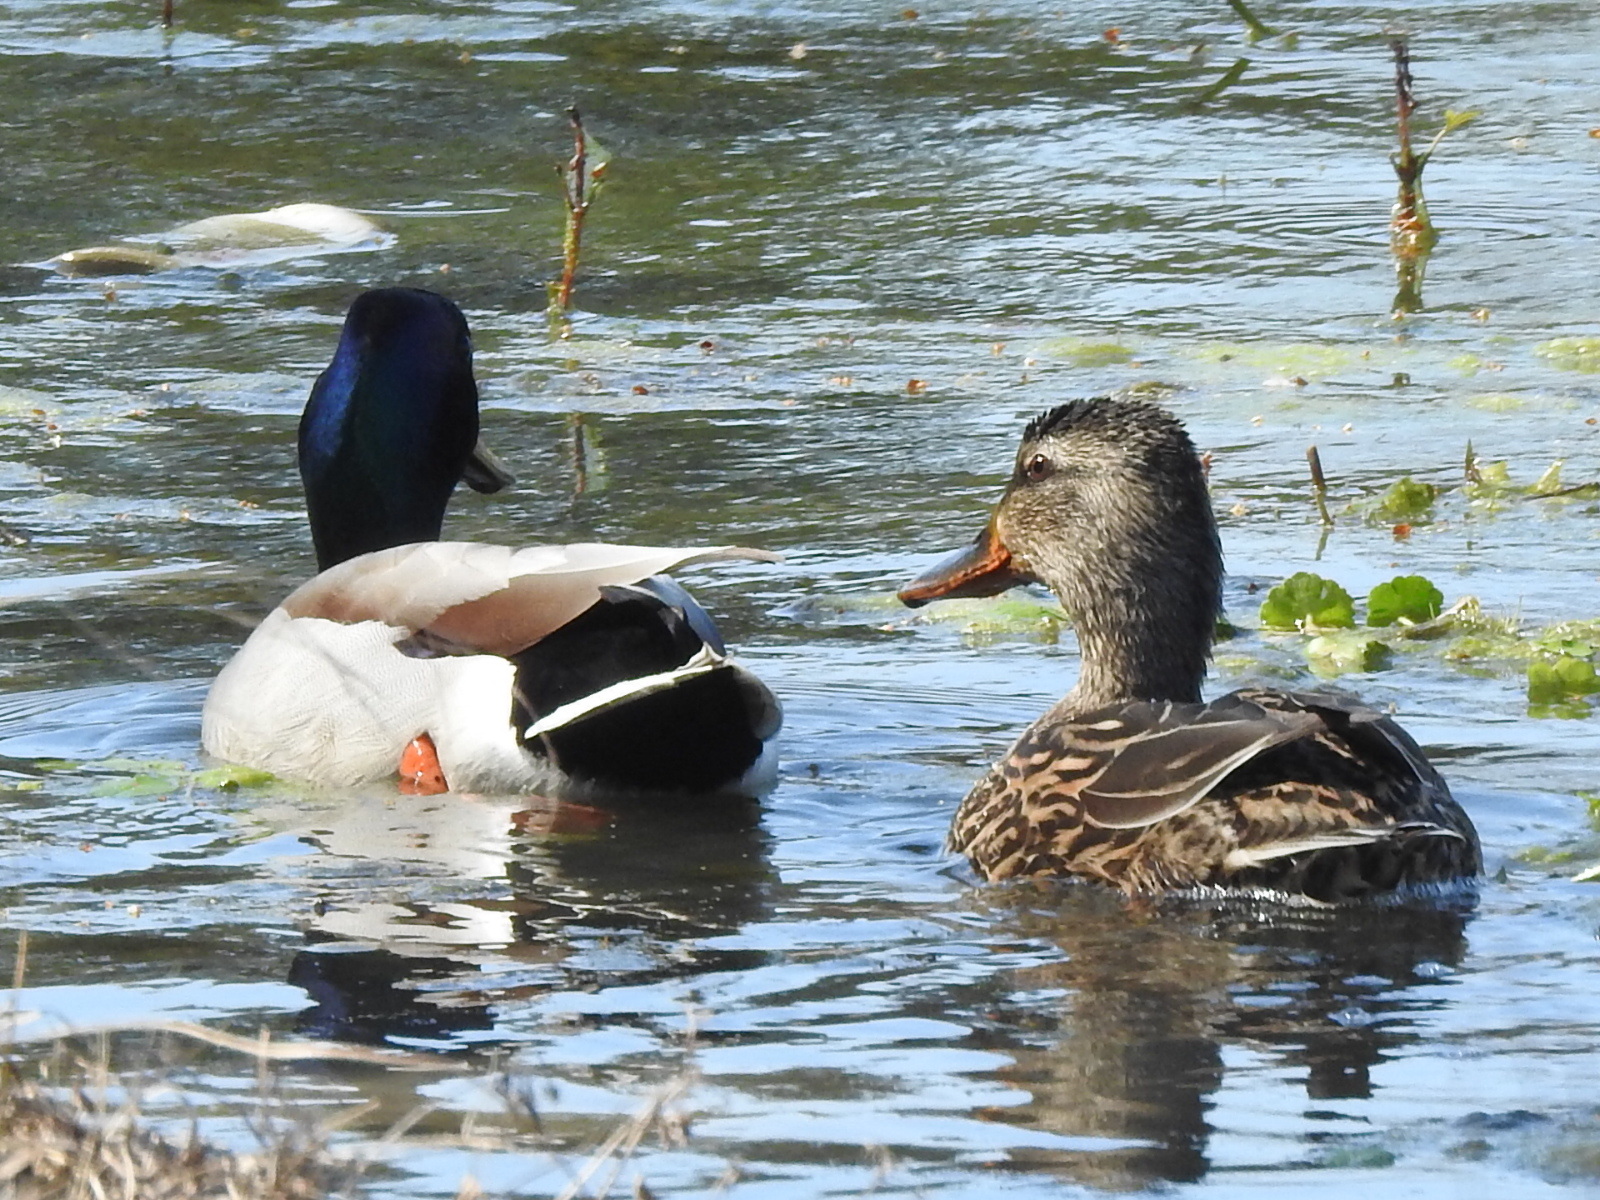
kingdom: Animalia
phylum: Chordata
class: Aves
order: Anseriformes
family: Anatidae
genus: Anas
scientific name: Anas platyrhynchos
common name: Mallard
